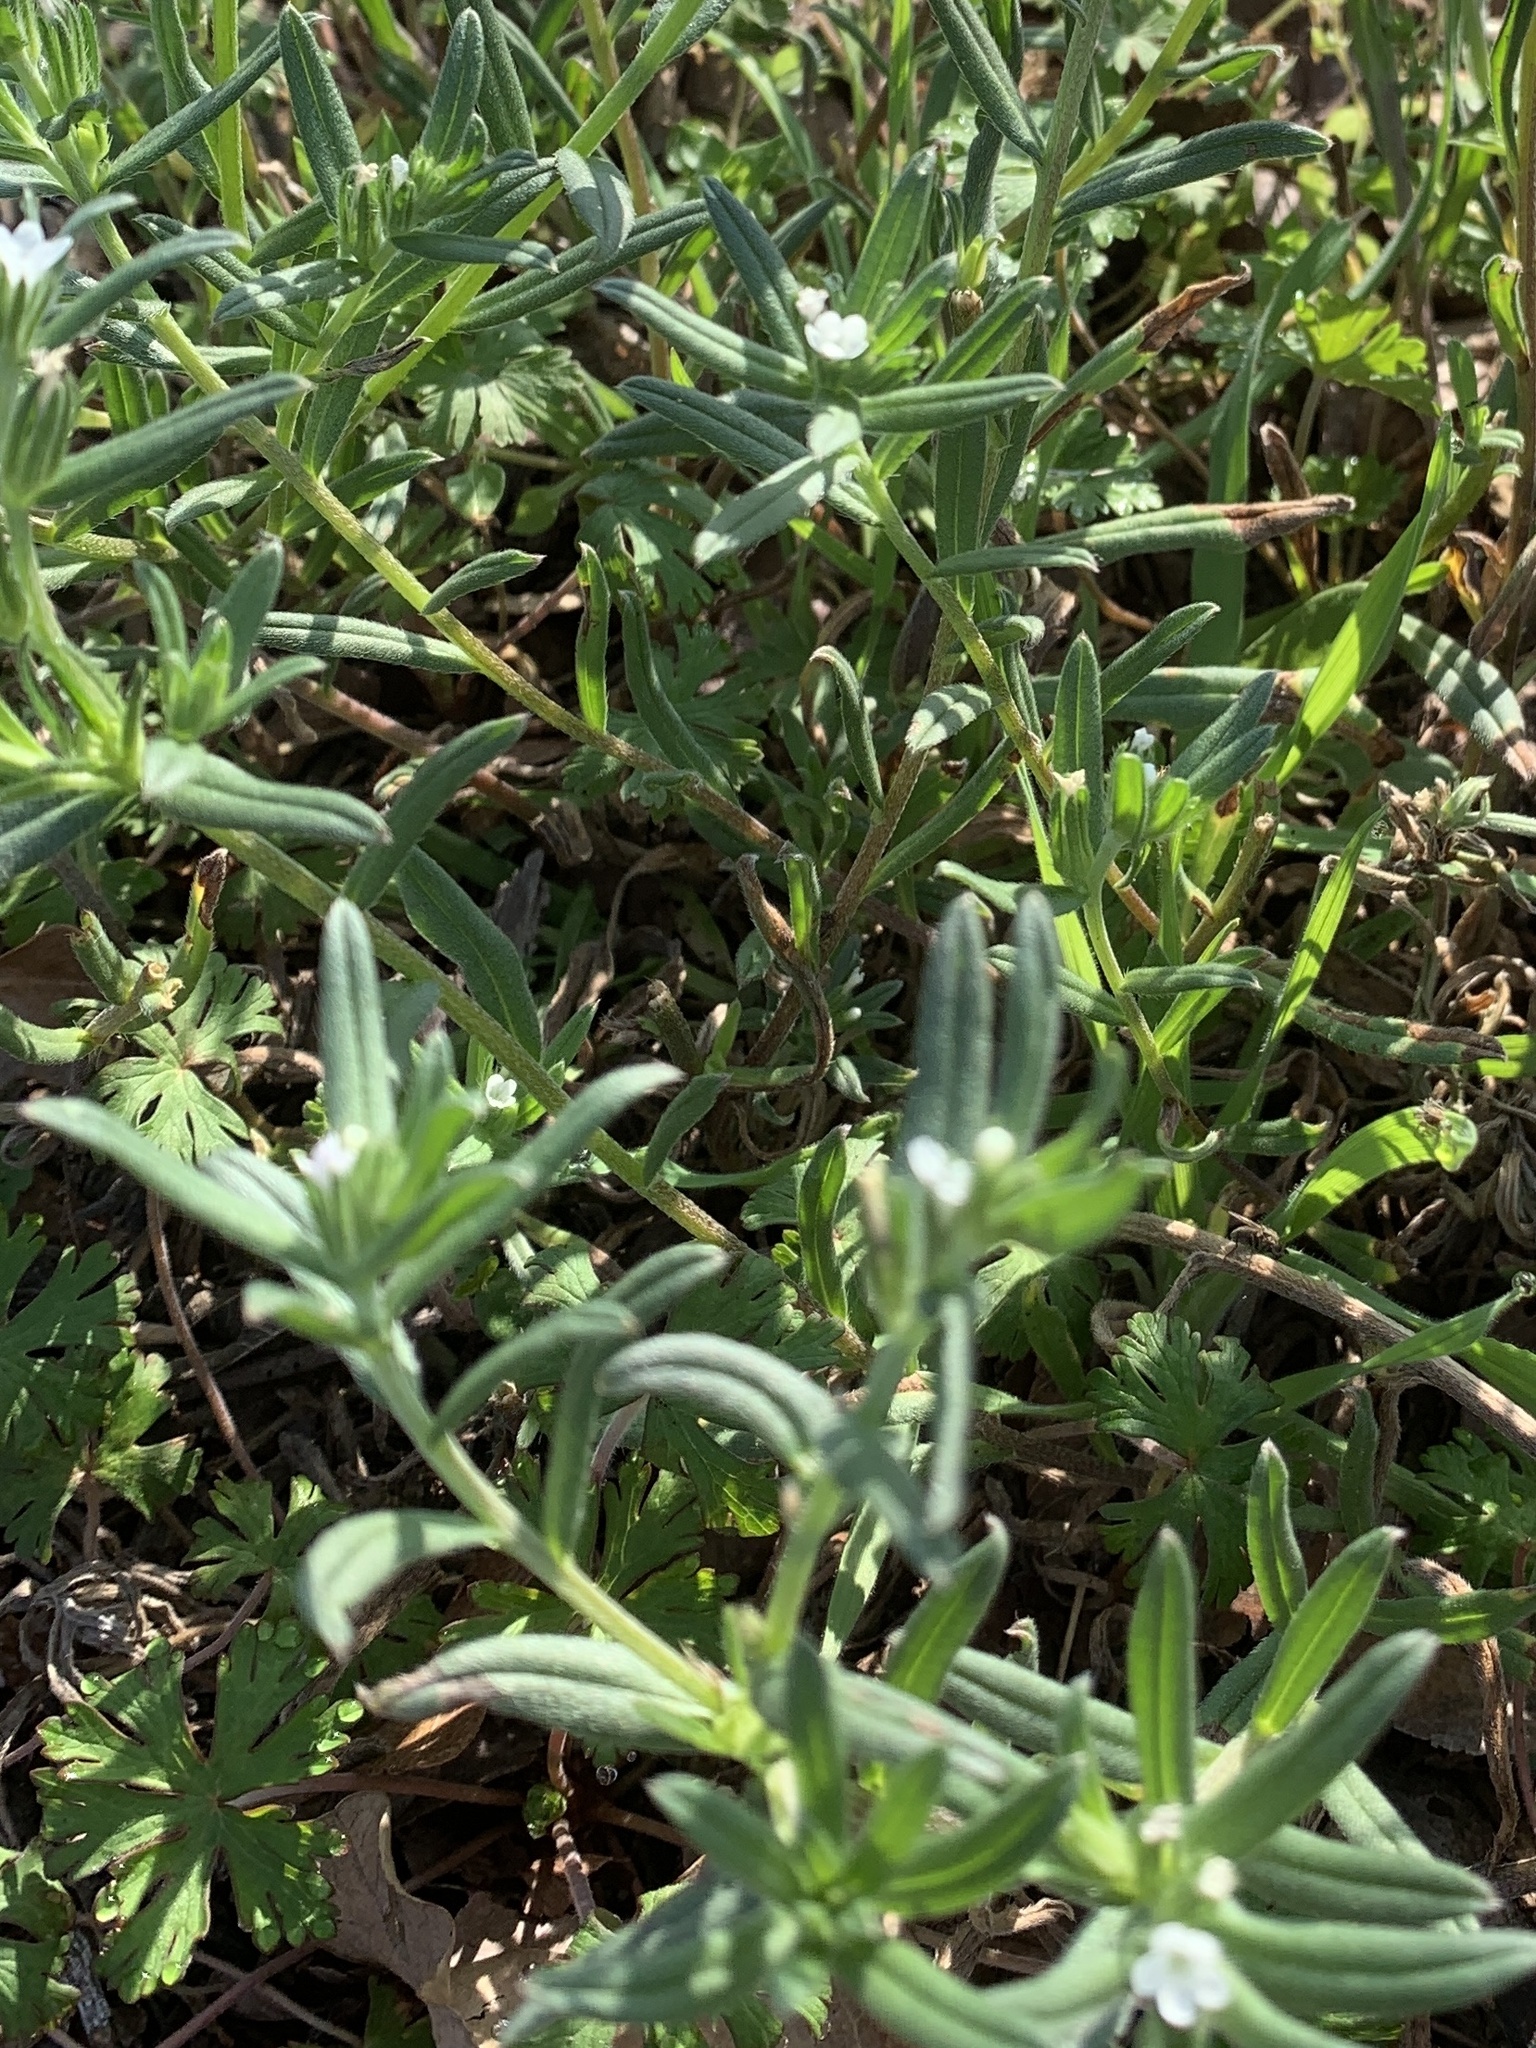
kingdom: Plantae
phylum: Tracheophyta
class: Magnoliopsida
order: Boraginales
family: Boraginaceae
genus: Buglossoides
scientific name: Buglossoides arvensis
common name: Corn gromwell
